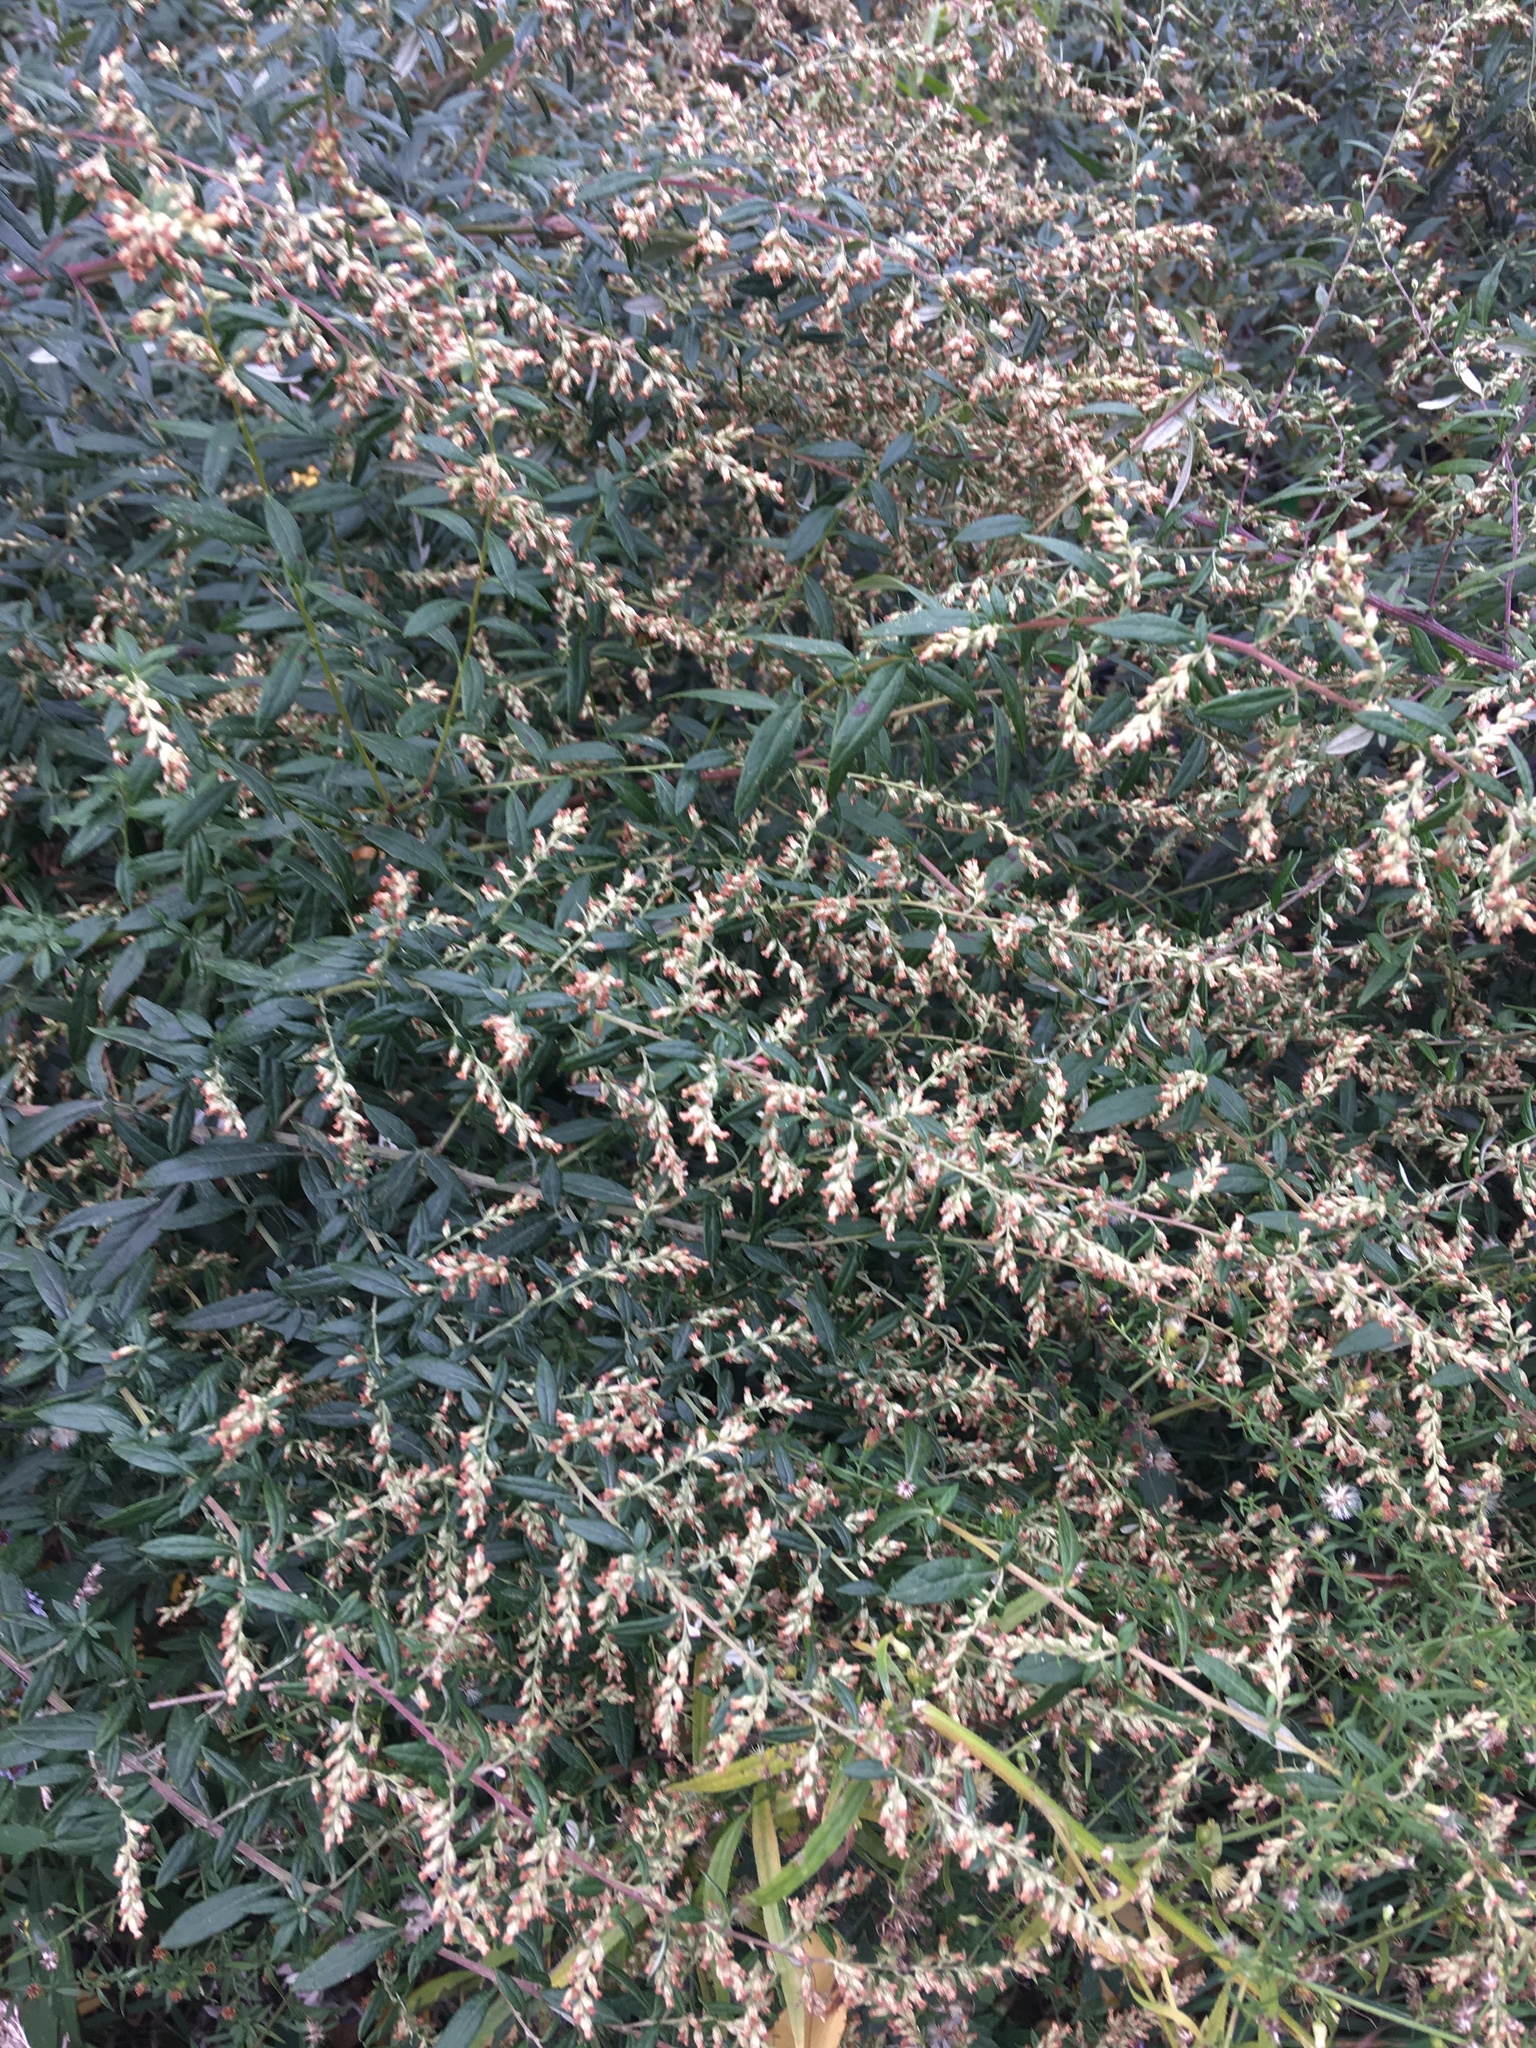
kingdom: Plantae
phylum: Tracheophyta
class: Magnoliopsida
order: Asterales
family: Asteraceae
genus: Artemisia
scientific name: Artemisia vulgaris
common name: Mugwort
